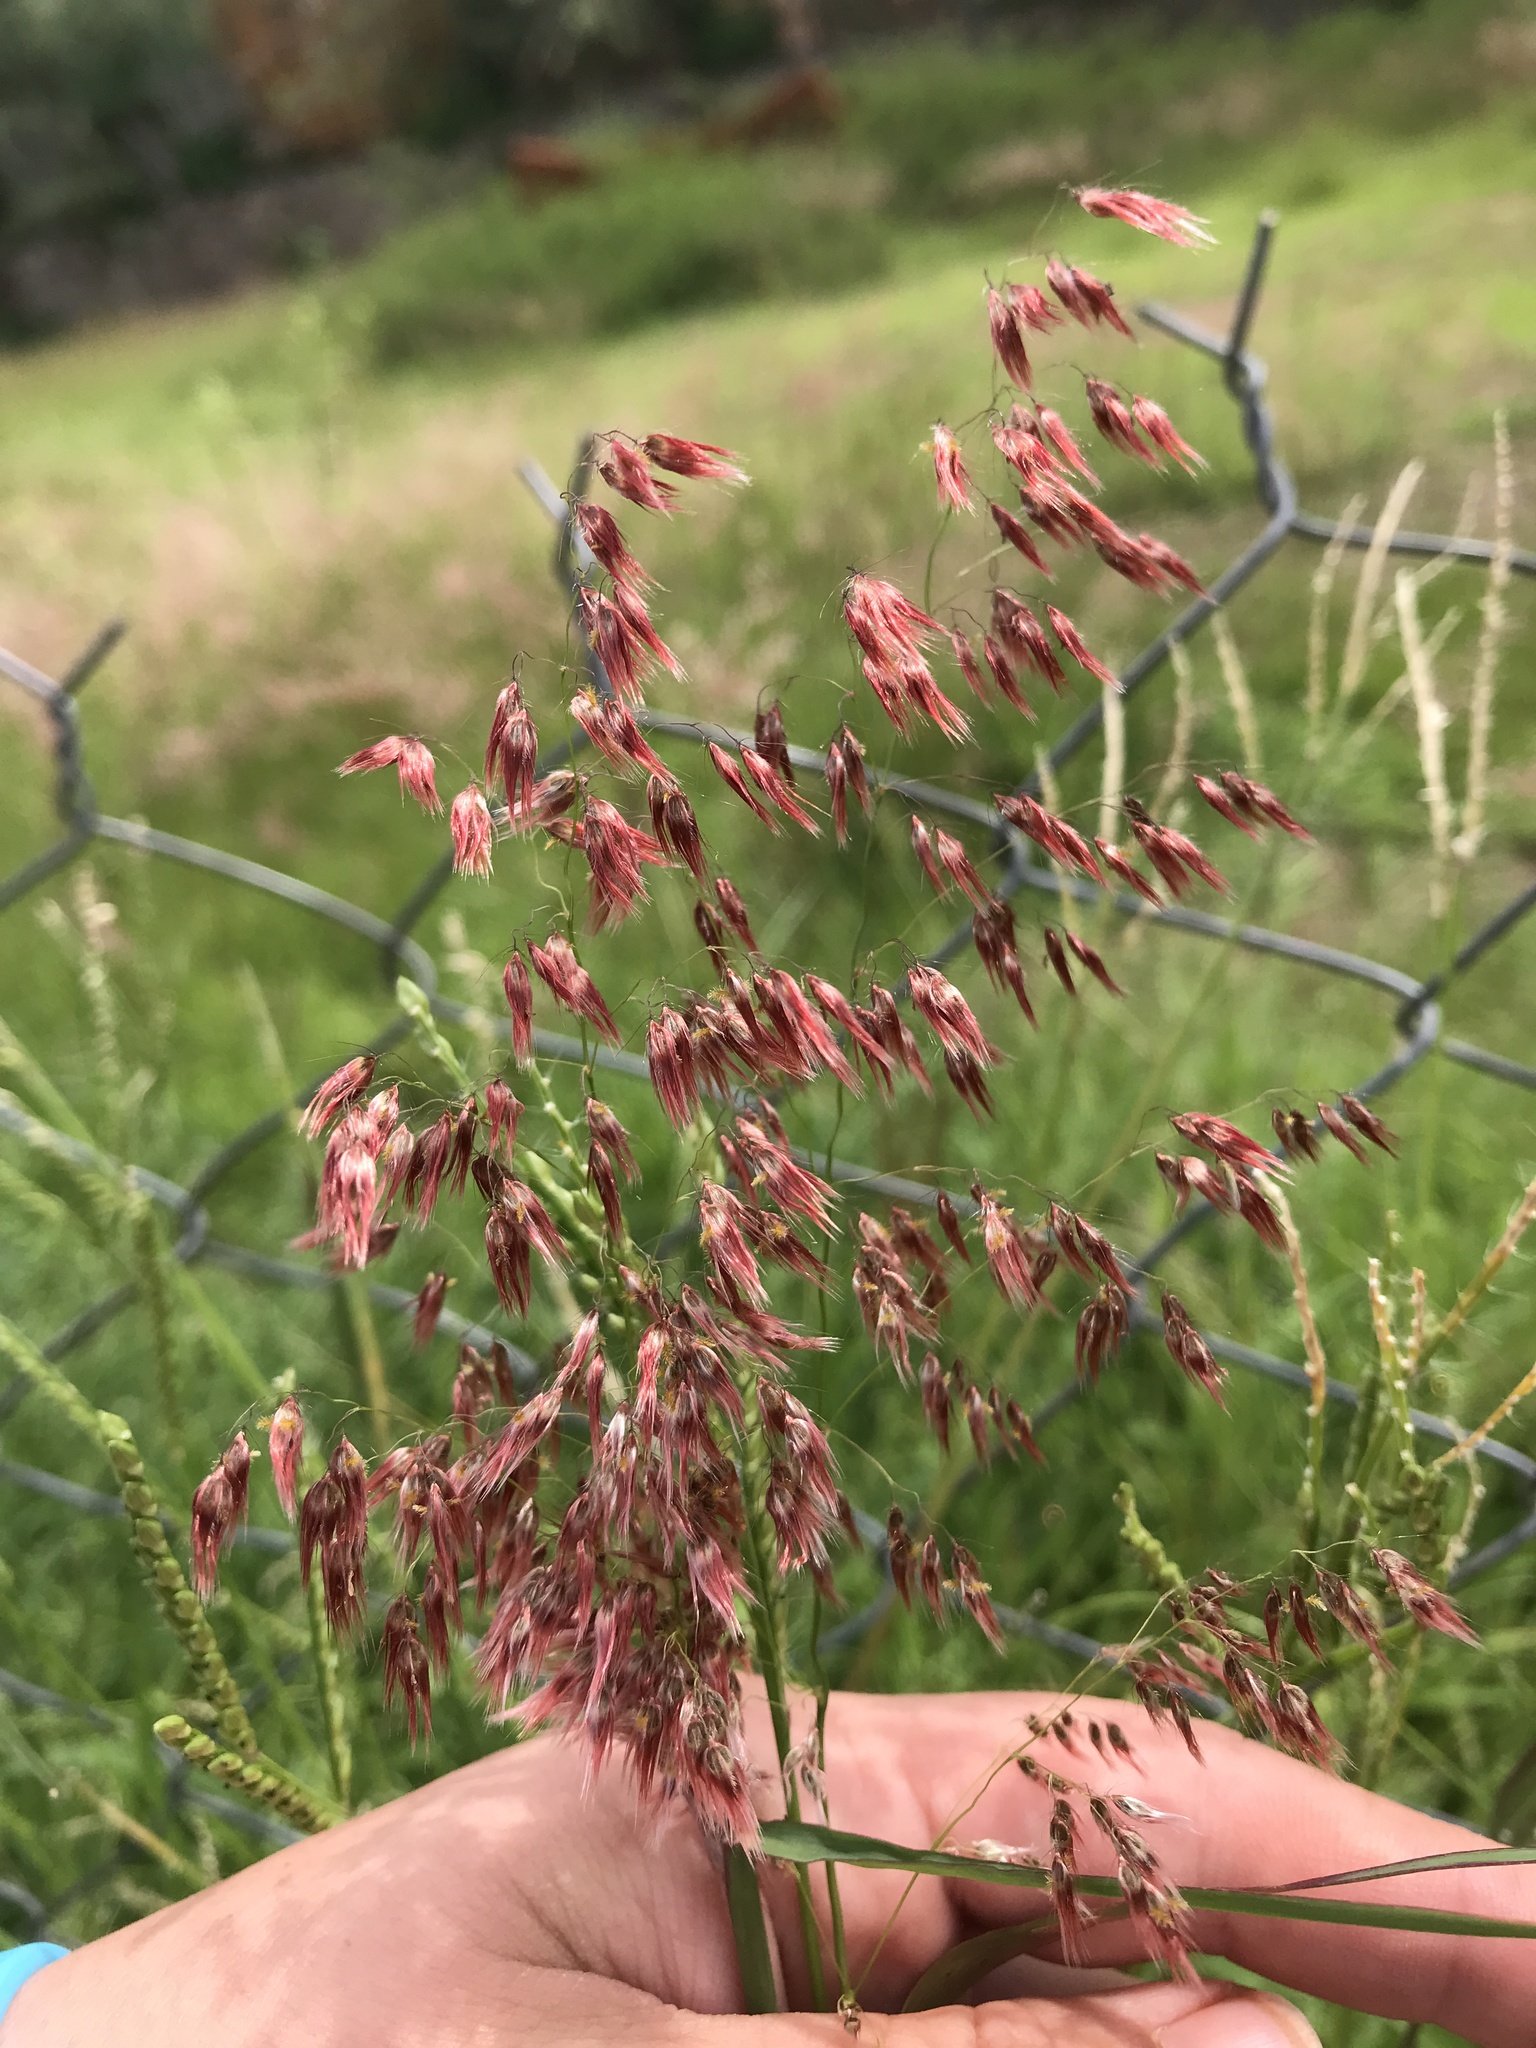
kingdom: Plantae
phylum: Tracheophyta
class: Liliopsida
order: Poales
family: Poaceae
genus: Melinis
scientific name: Melinis repens
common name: Rose natal grass
